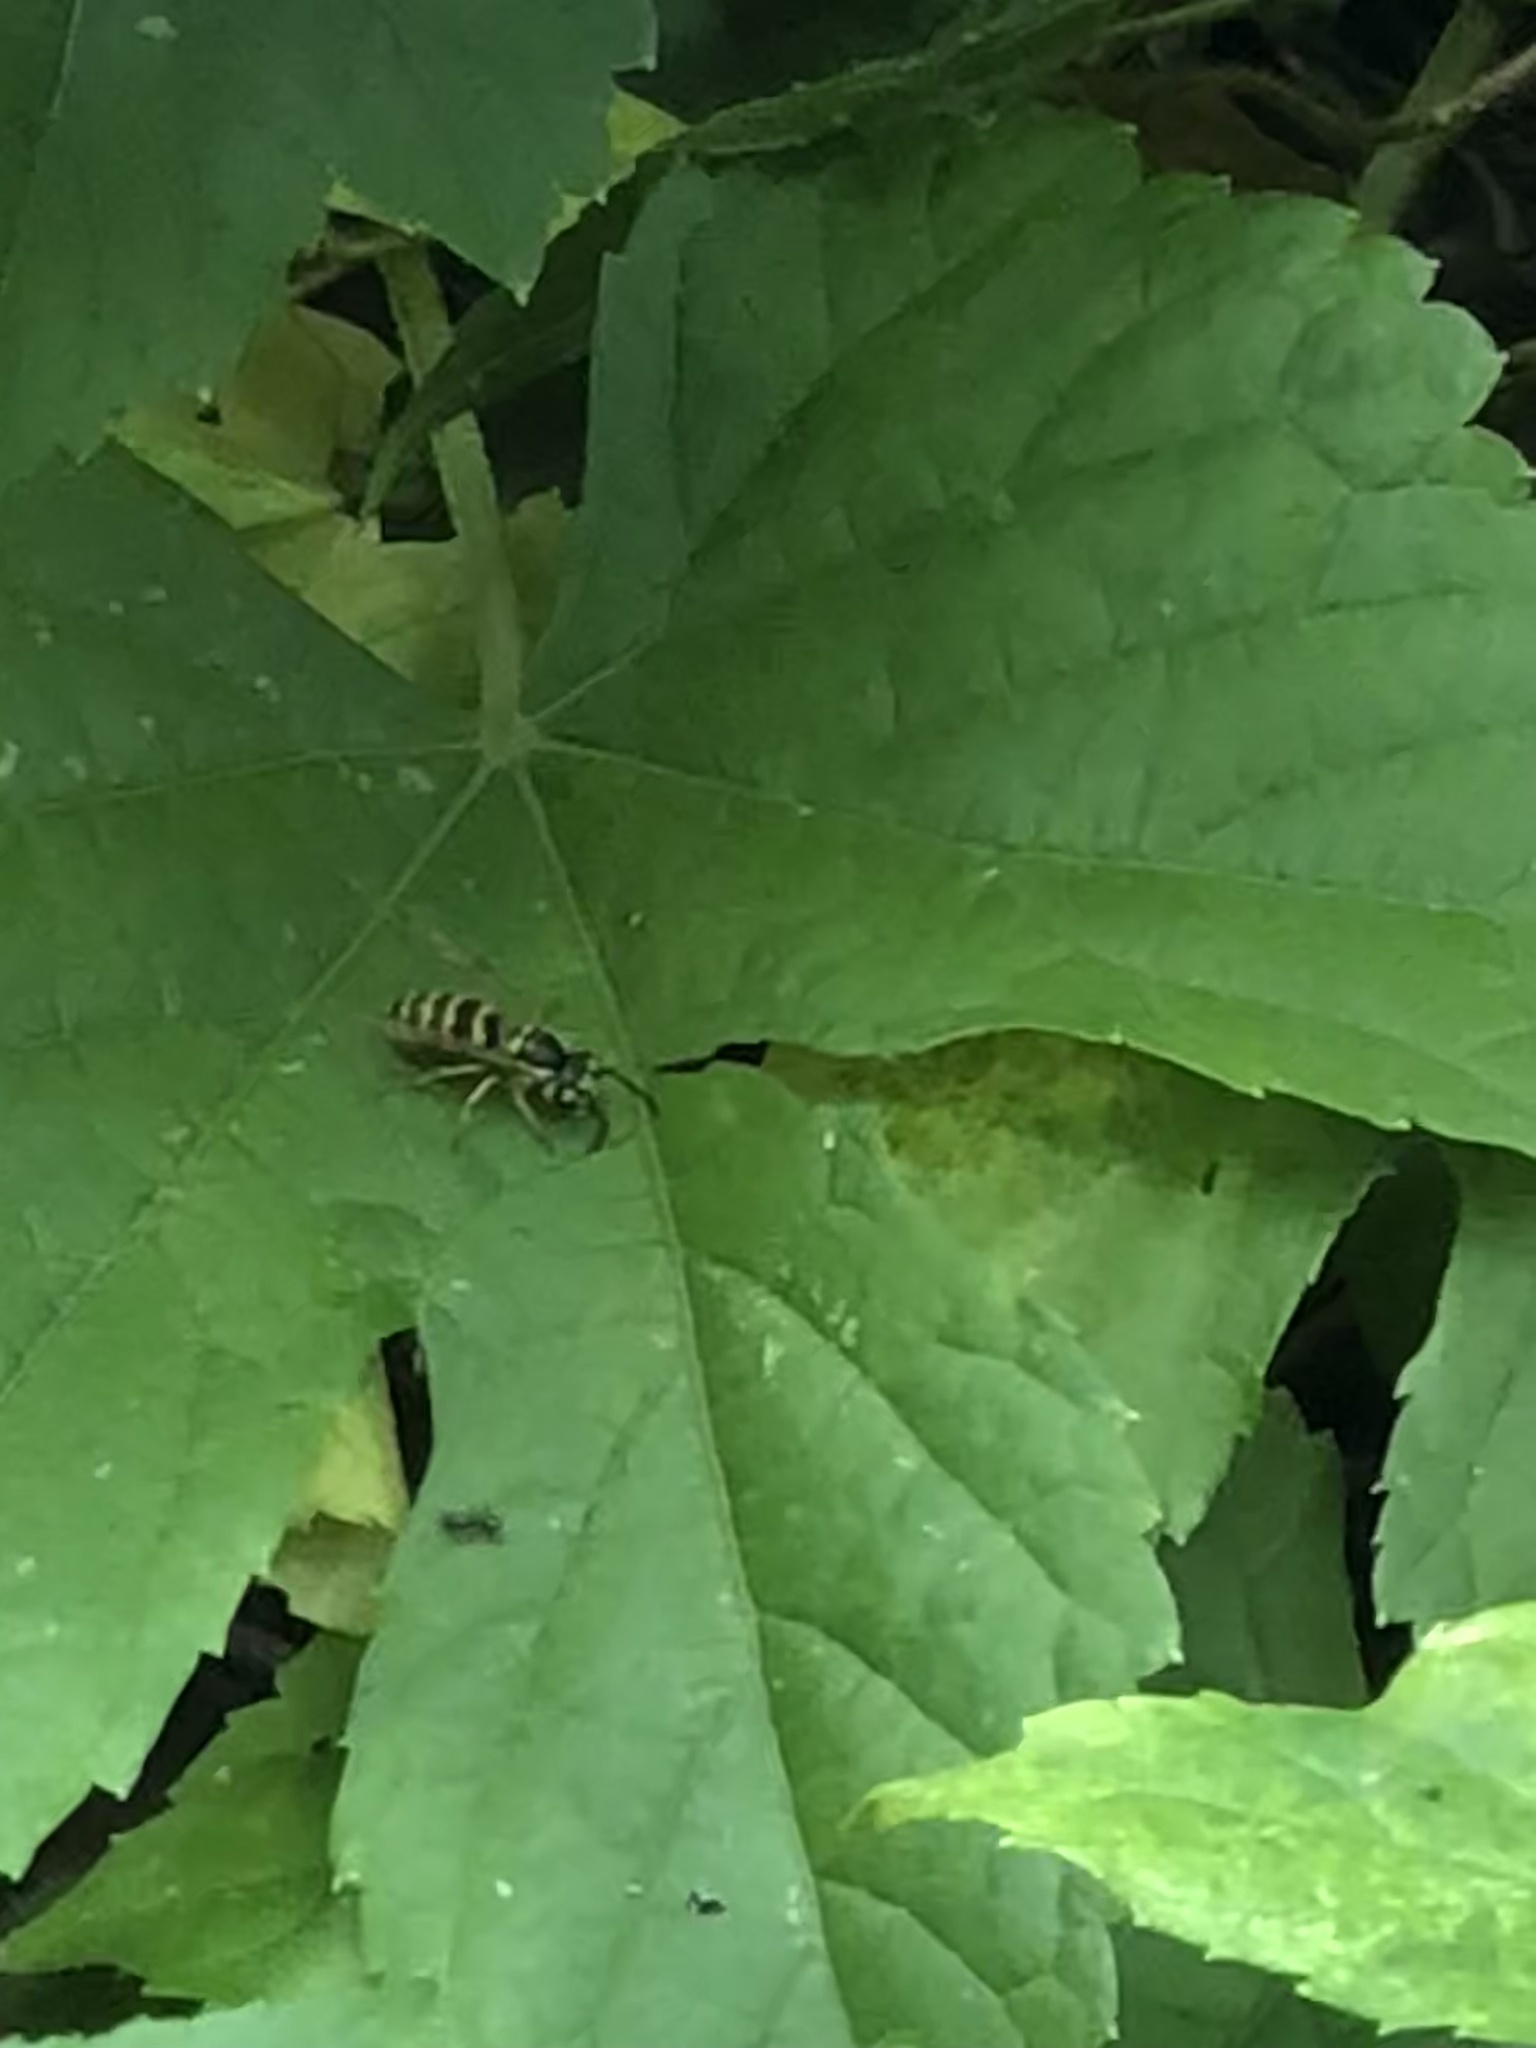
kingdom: Animalia
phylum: Arthropoda
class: Insecta
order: Hymenoptera
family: Vespidae
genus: Vespula
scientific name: Vespula flavopilosa
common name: Downy yellowjacket
